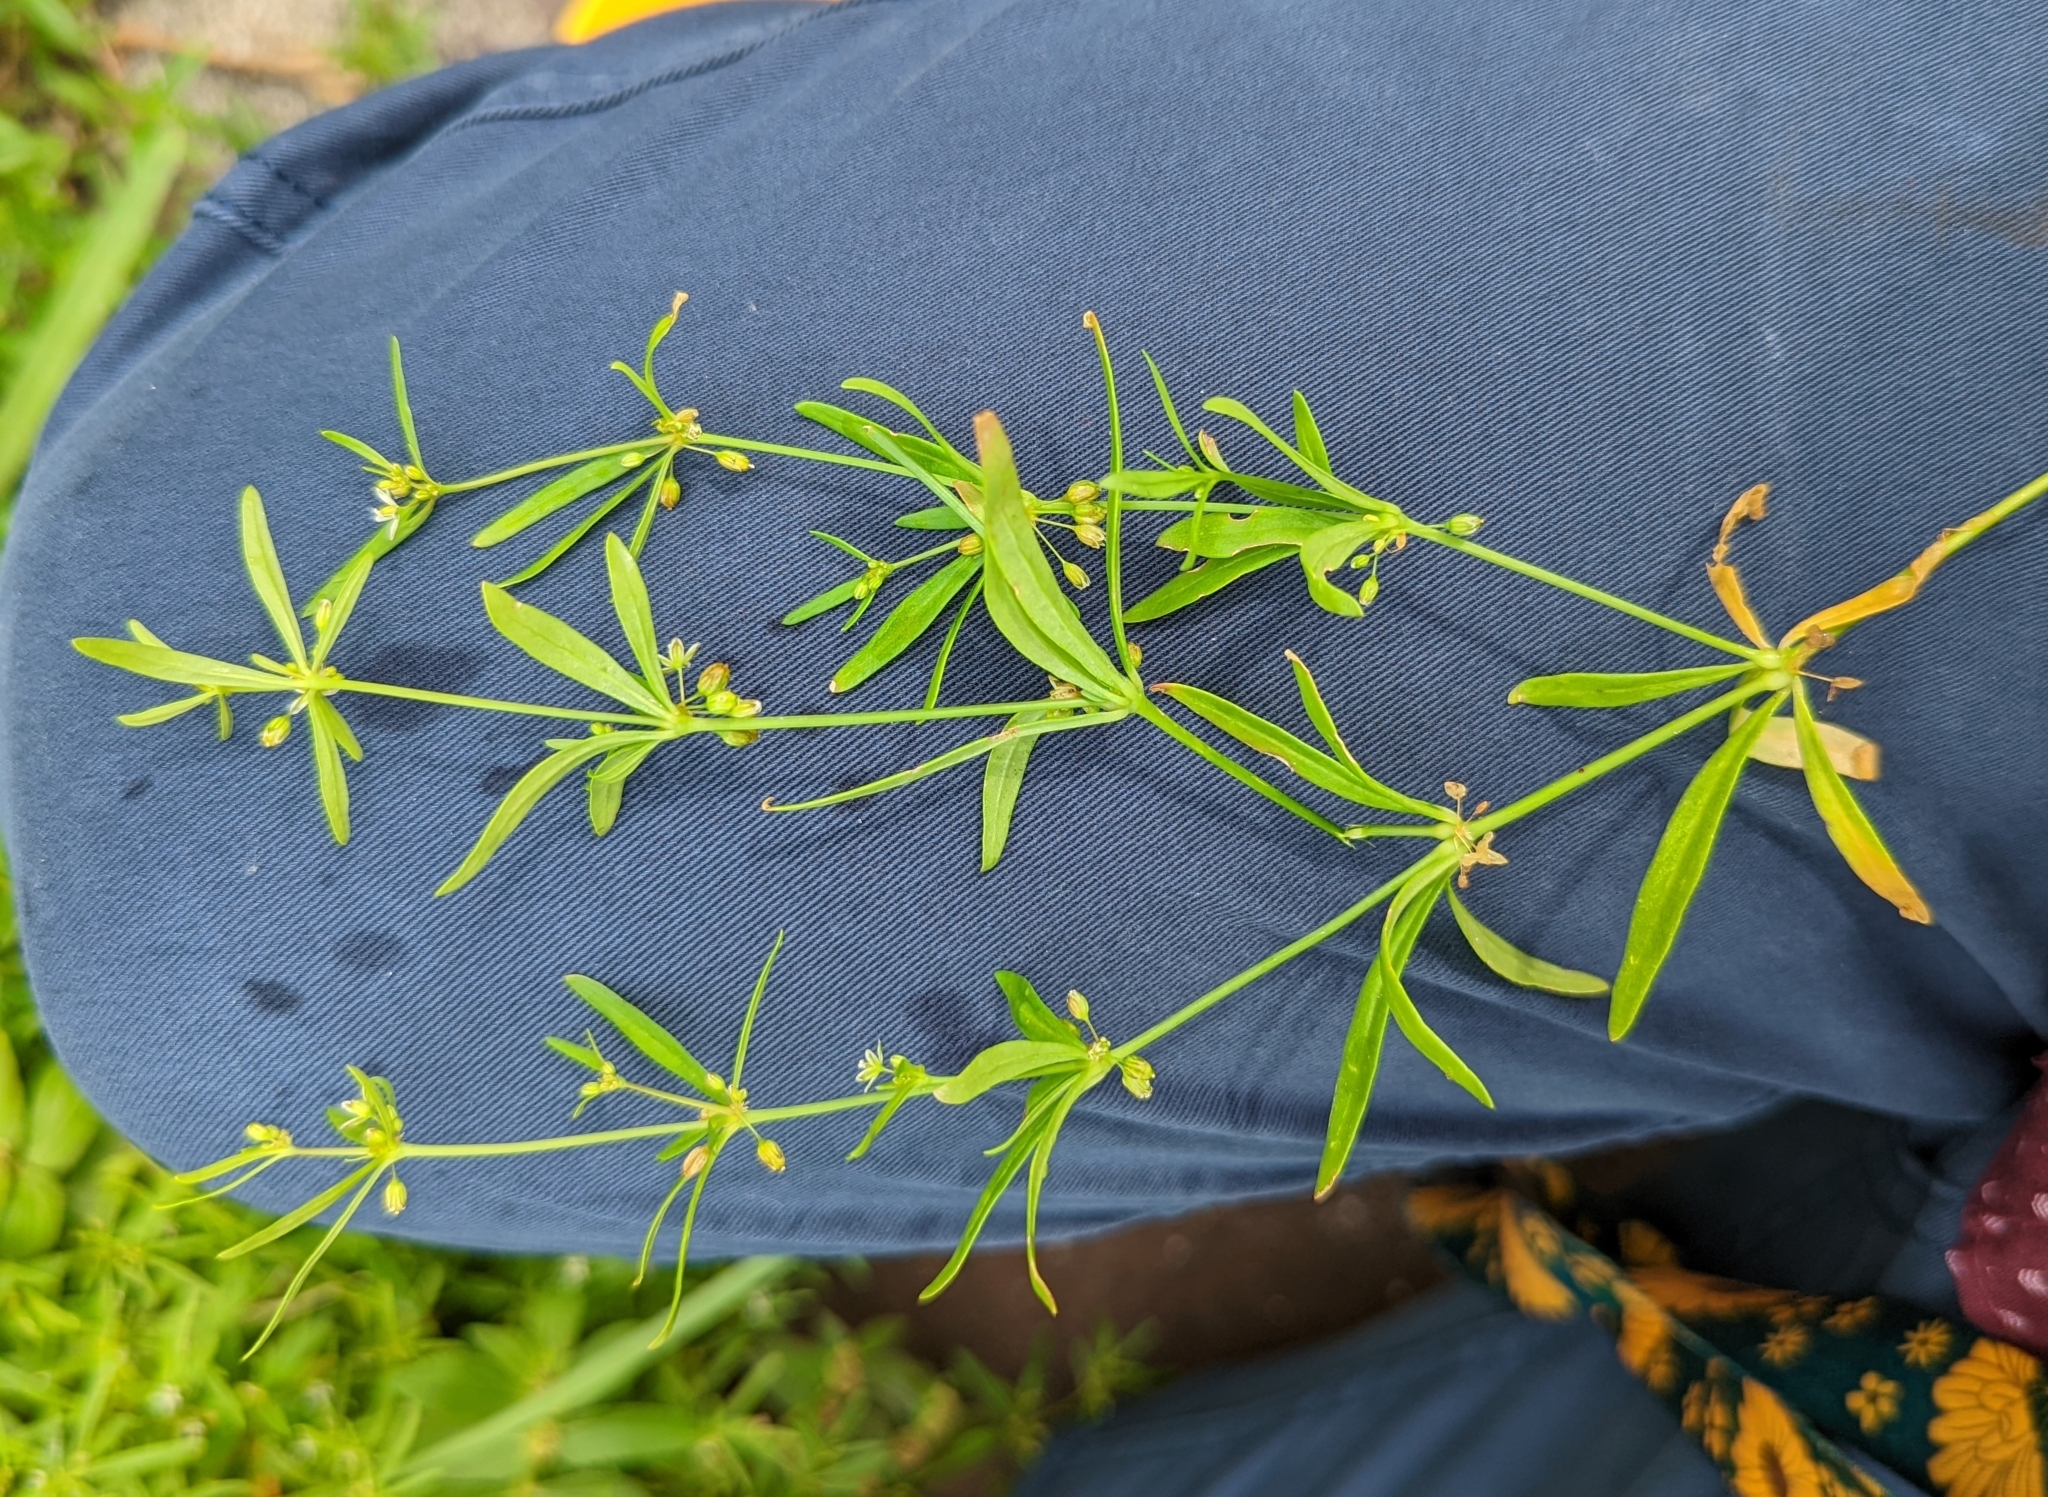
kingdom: Plantae
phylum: Tracheophyta
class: Magnoliopsida
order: Caryophyllales
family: Molluginaceae
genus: Mollugo
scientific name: Mollugo verticillata
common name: Green carpetweed
